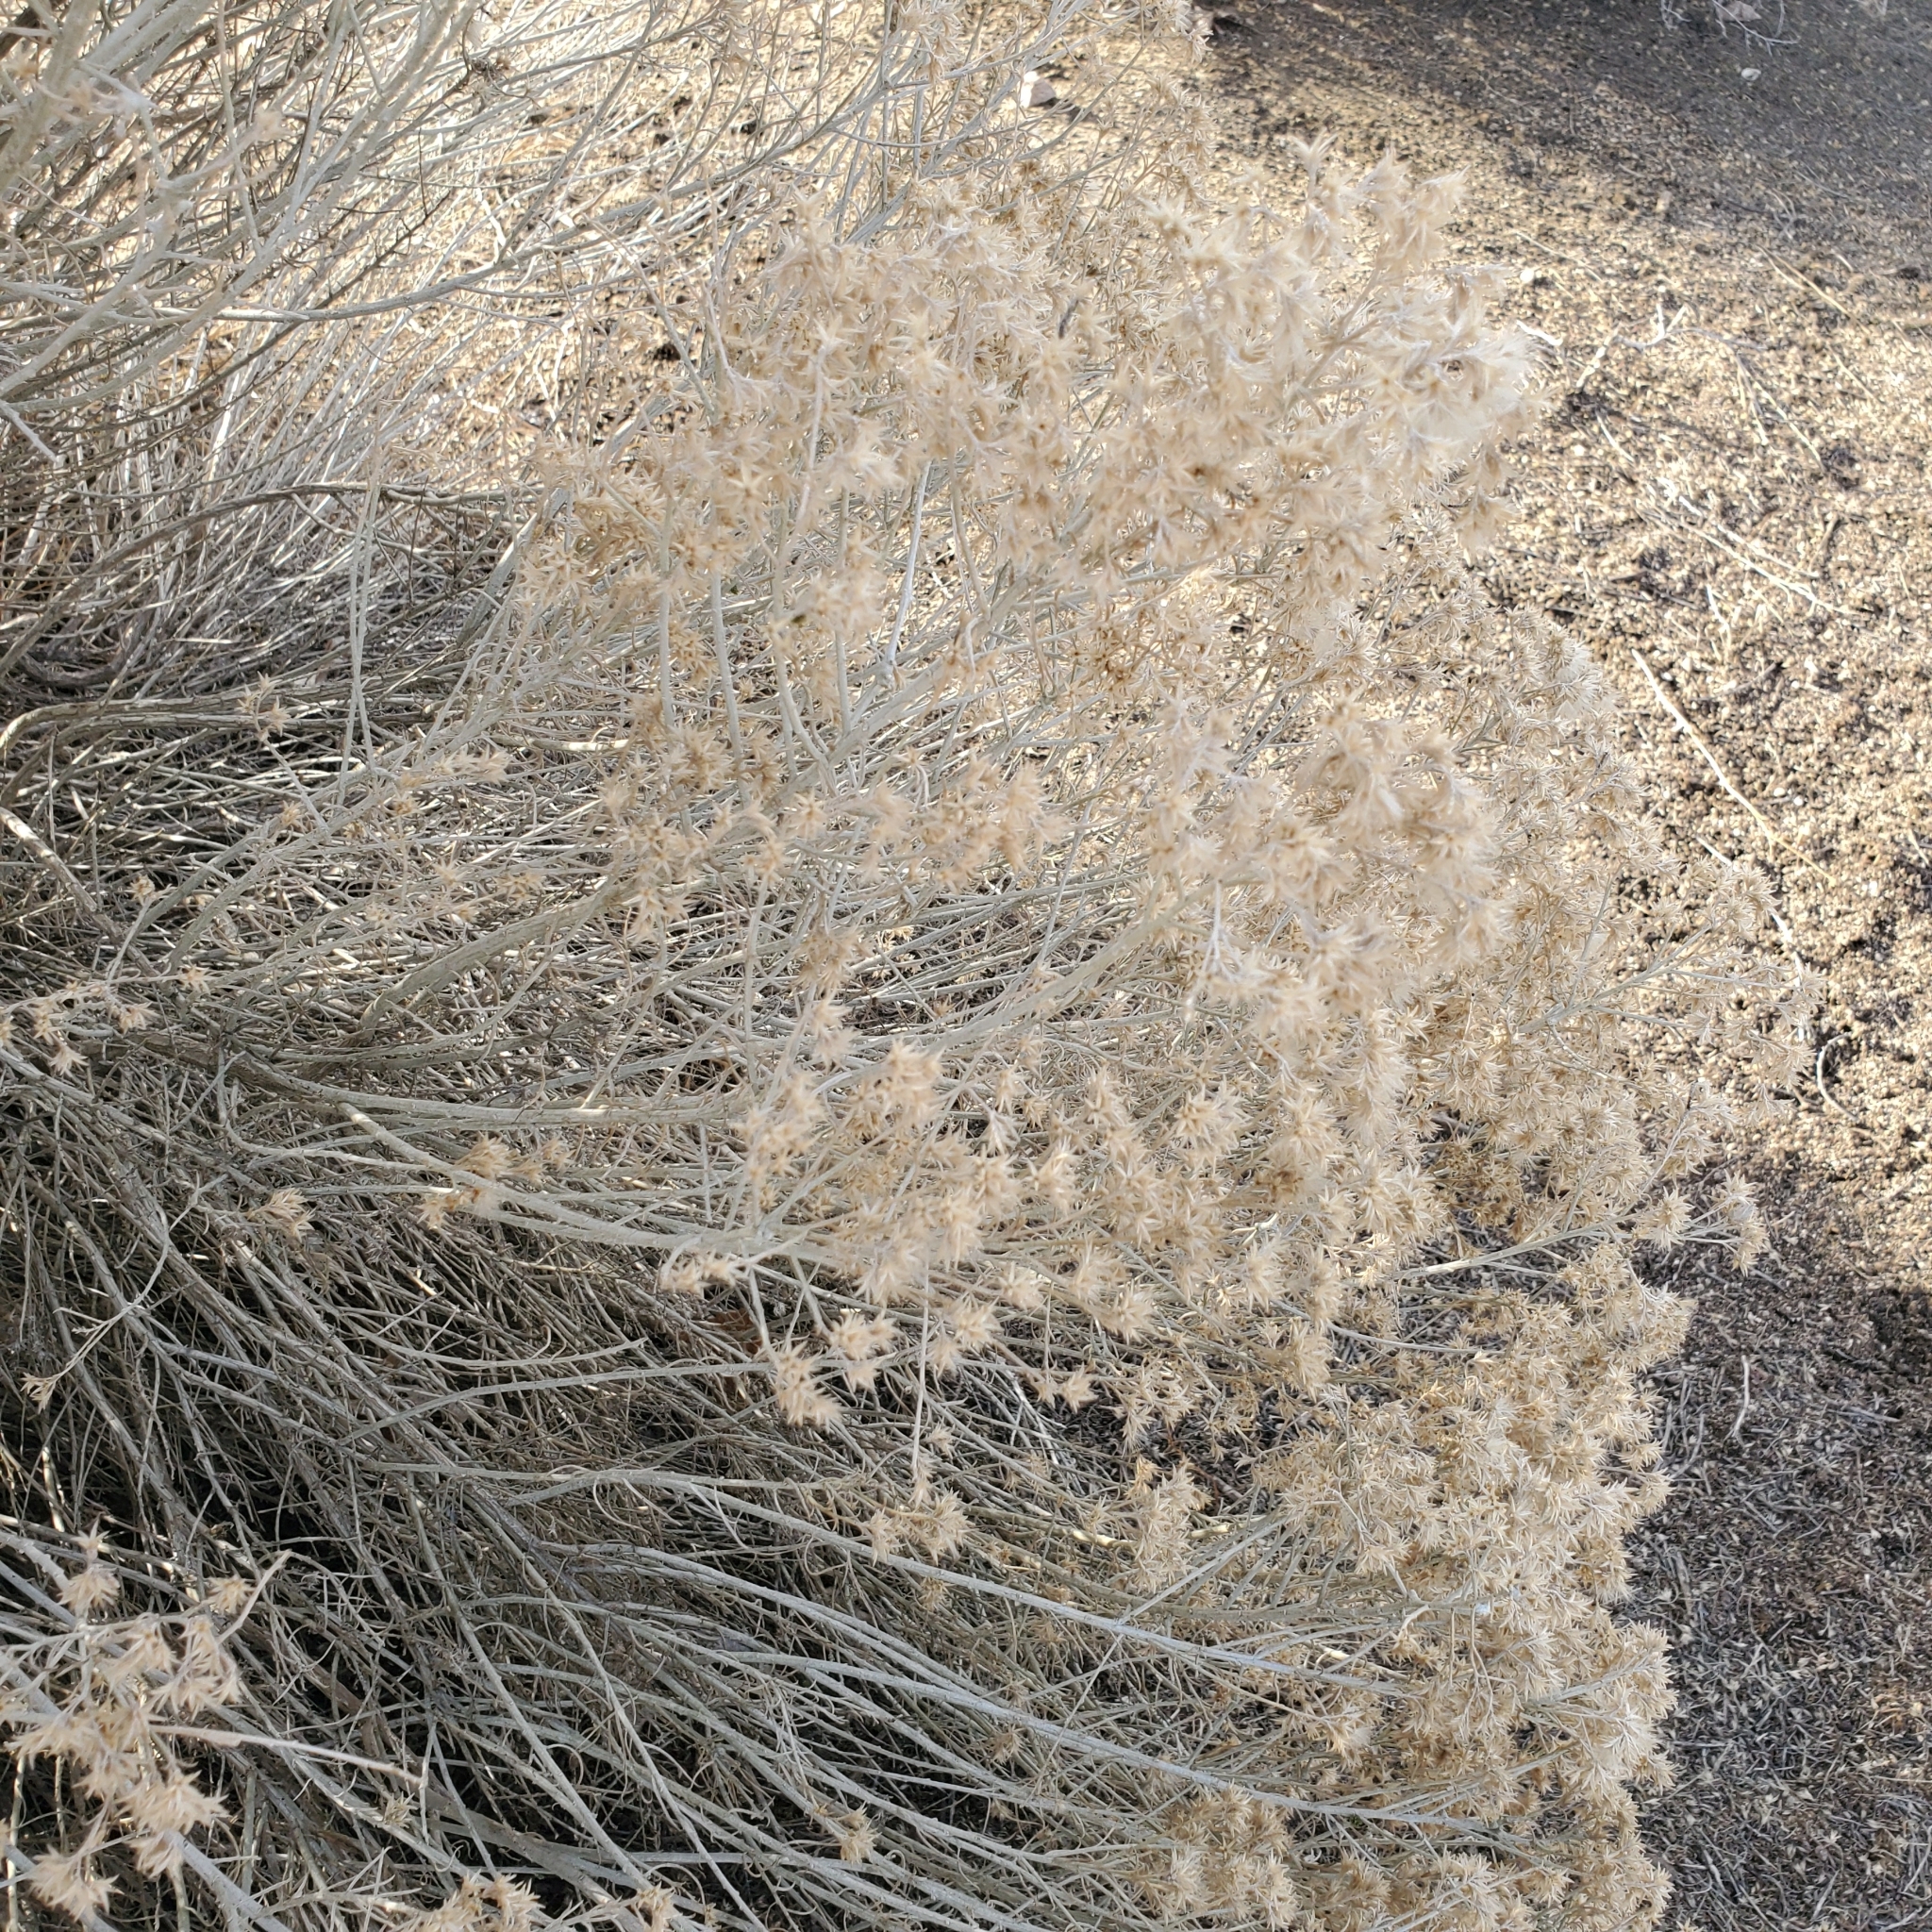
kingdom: Plantae
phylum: Tracheophyta
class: Magnoliopsida
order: Asterales
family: Asteraceae
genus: Ericameria
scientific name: Ericameria nauseosa
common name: Rubber rabbitbrush
